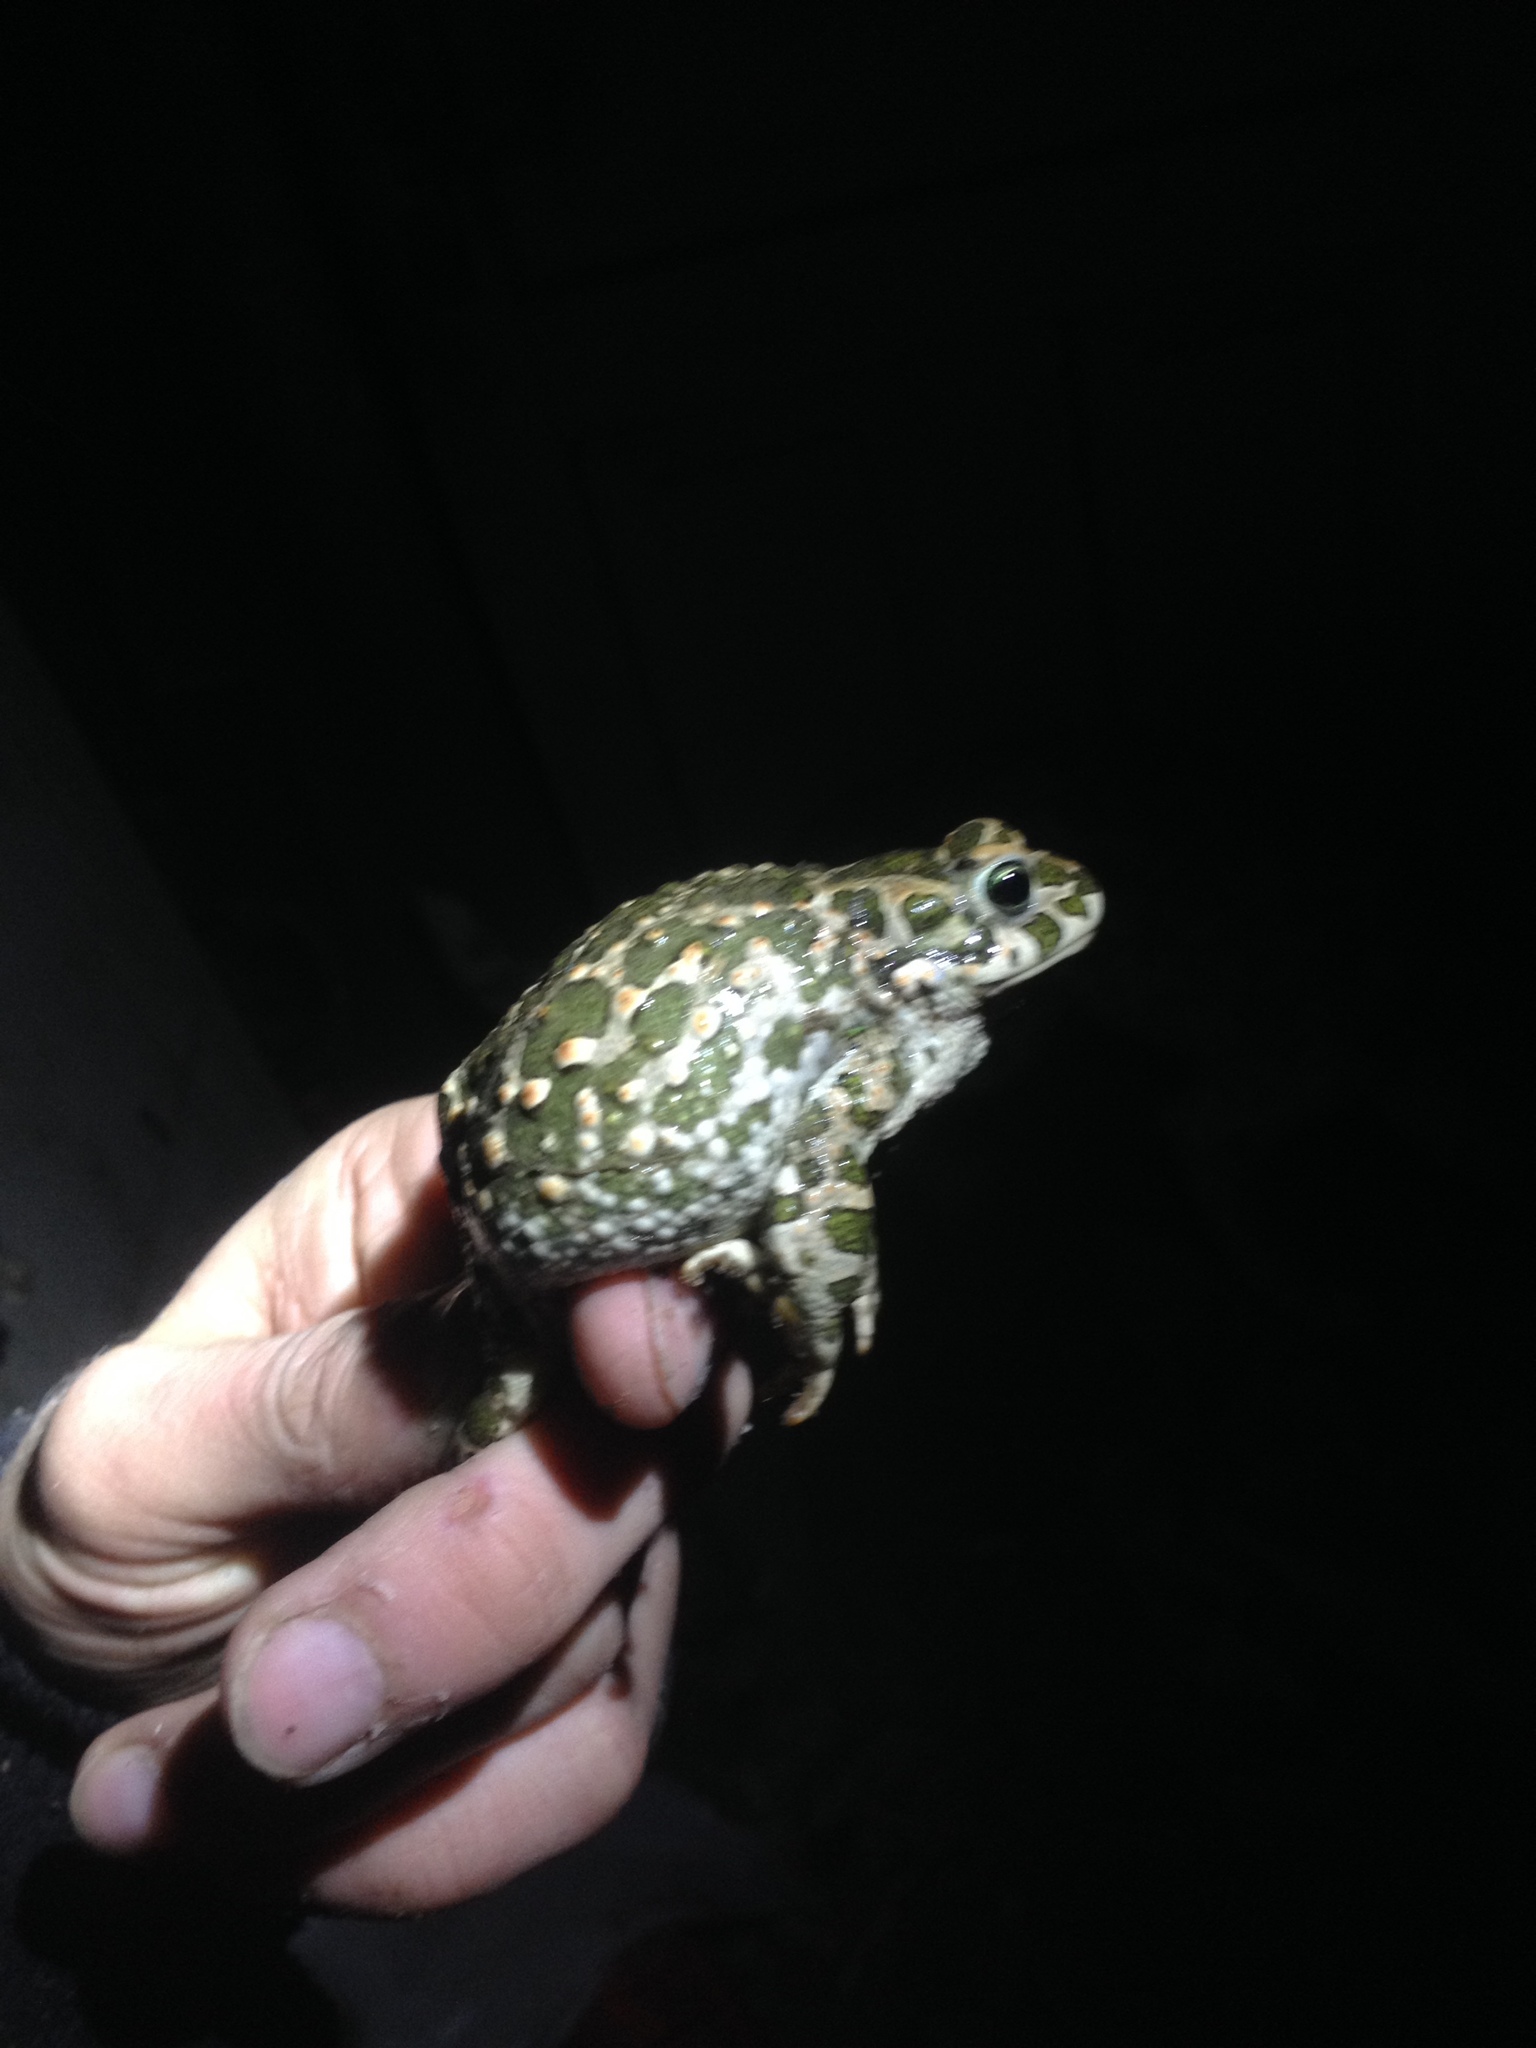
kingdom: Animalia
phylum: Chordata
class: Amphibia
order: Anura
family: Bufonidae
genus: Bufotes
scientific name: Bufotes viridis
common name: European green toad
